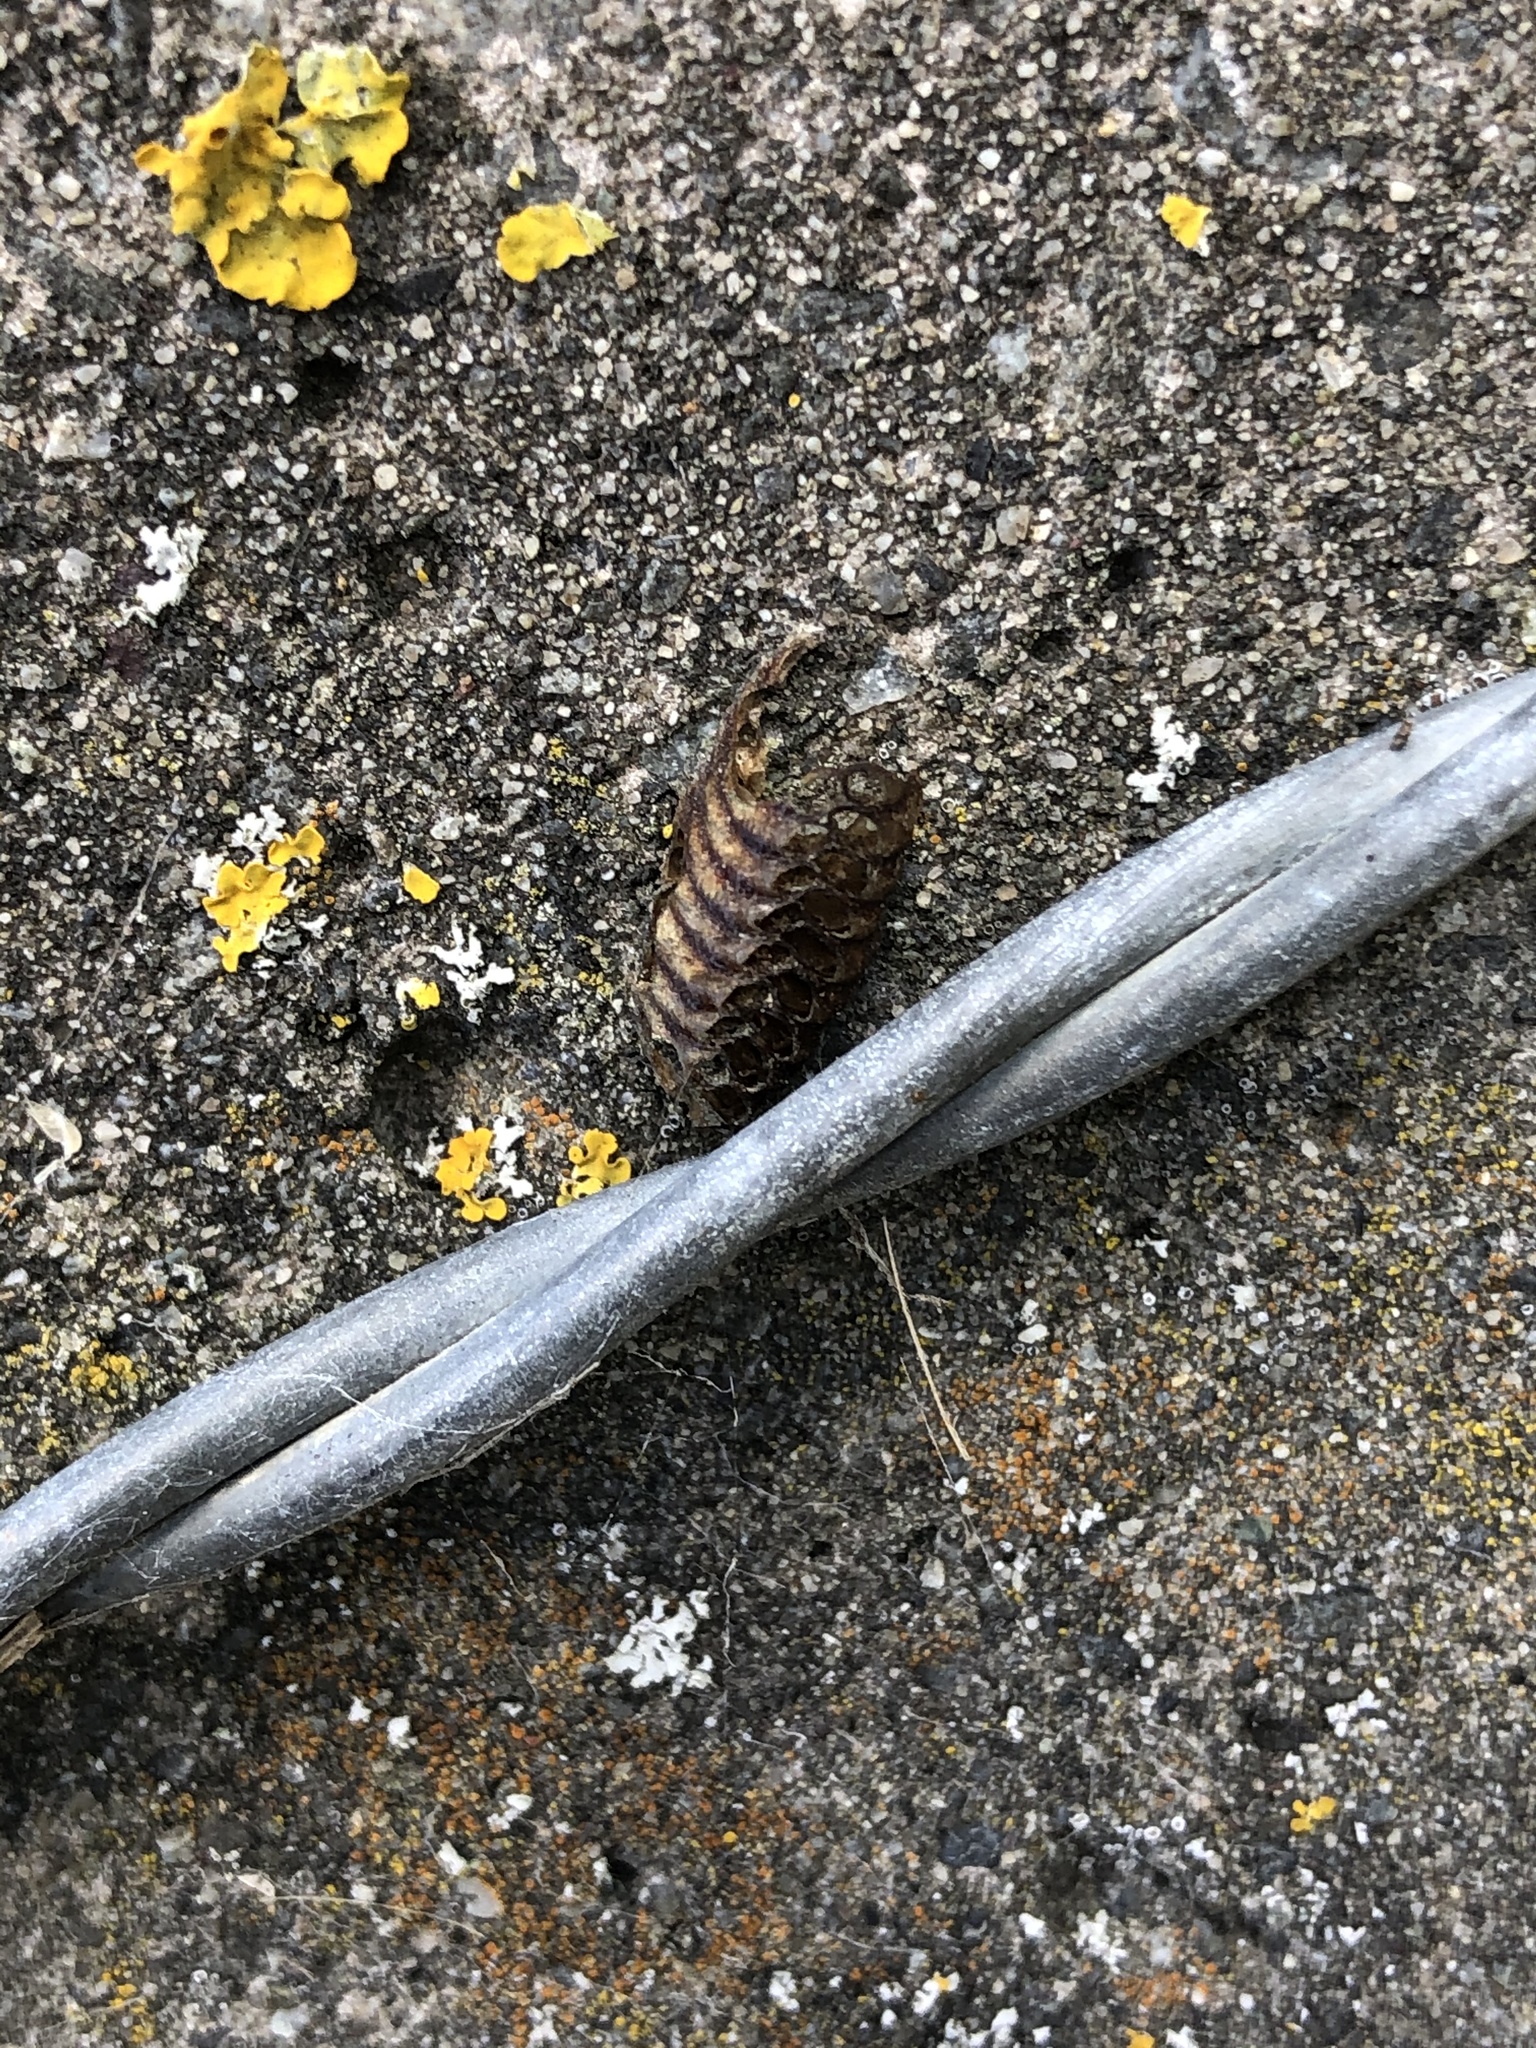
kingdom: Animalia
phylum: Arthropoda
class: Insecta
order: Mantodea
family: Mantidae
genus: Orthodera
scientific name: Orthodera novaezealandiae
